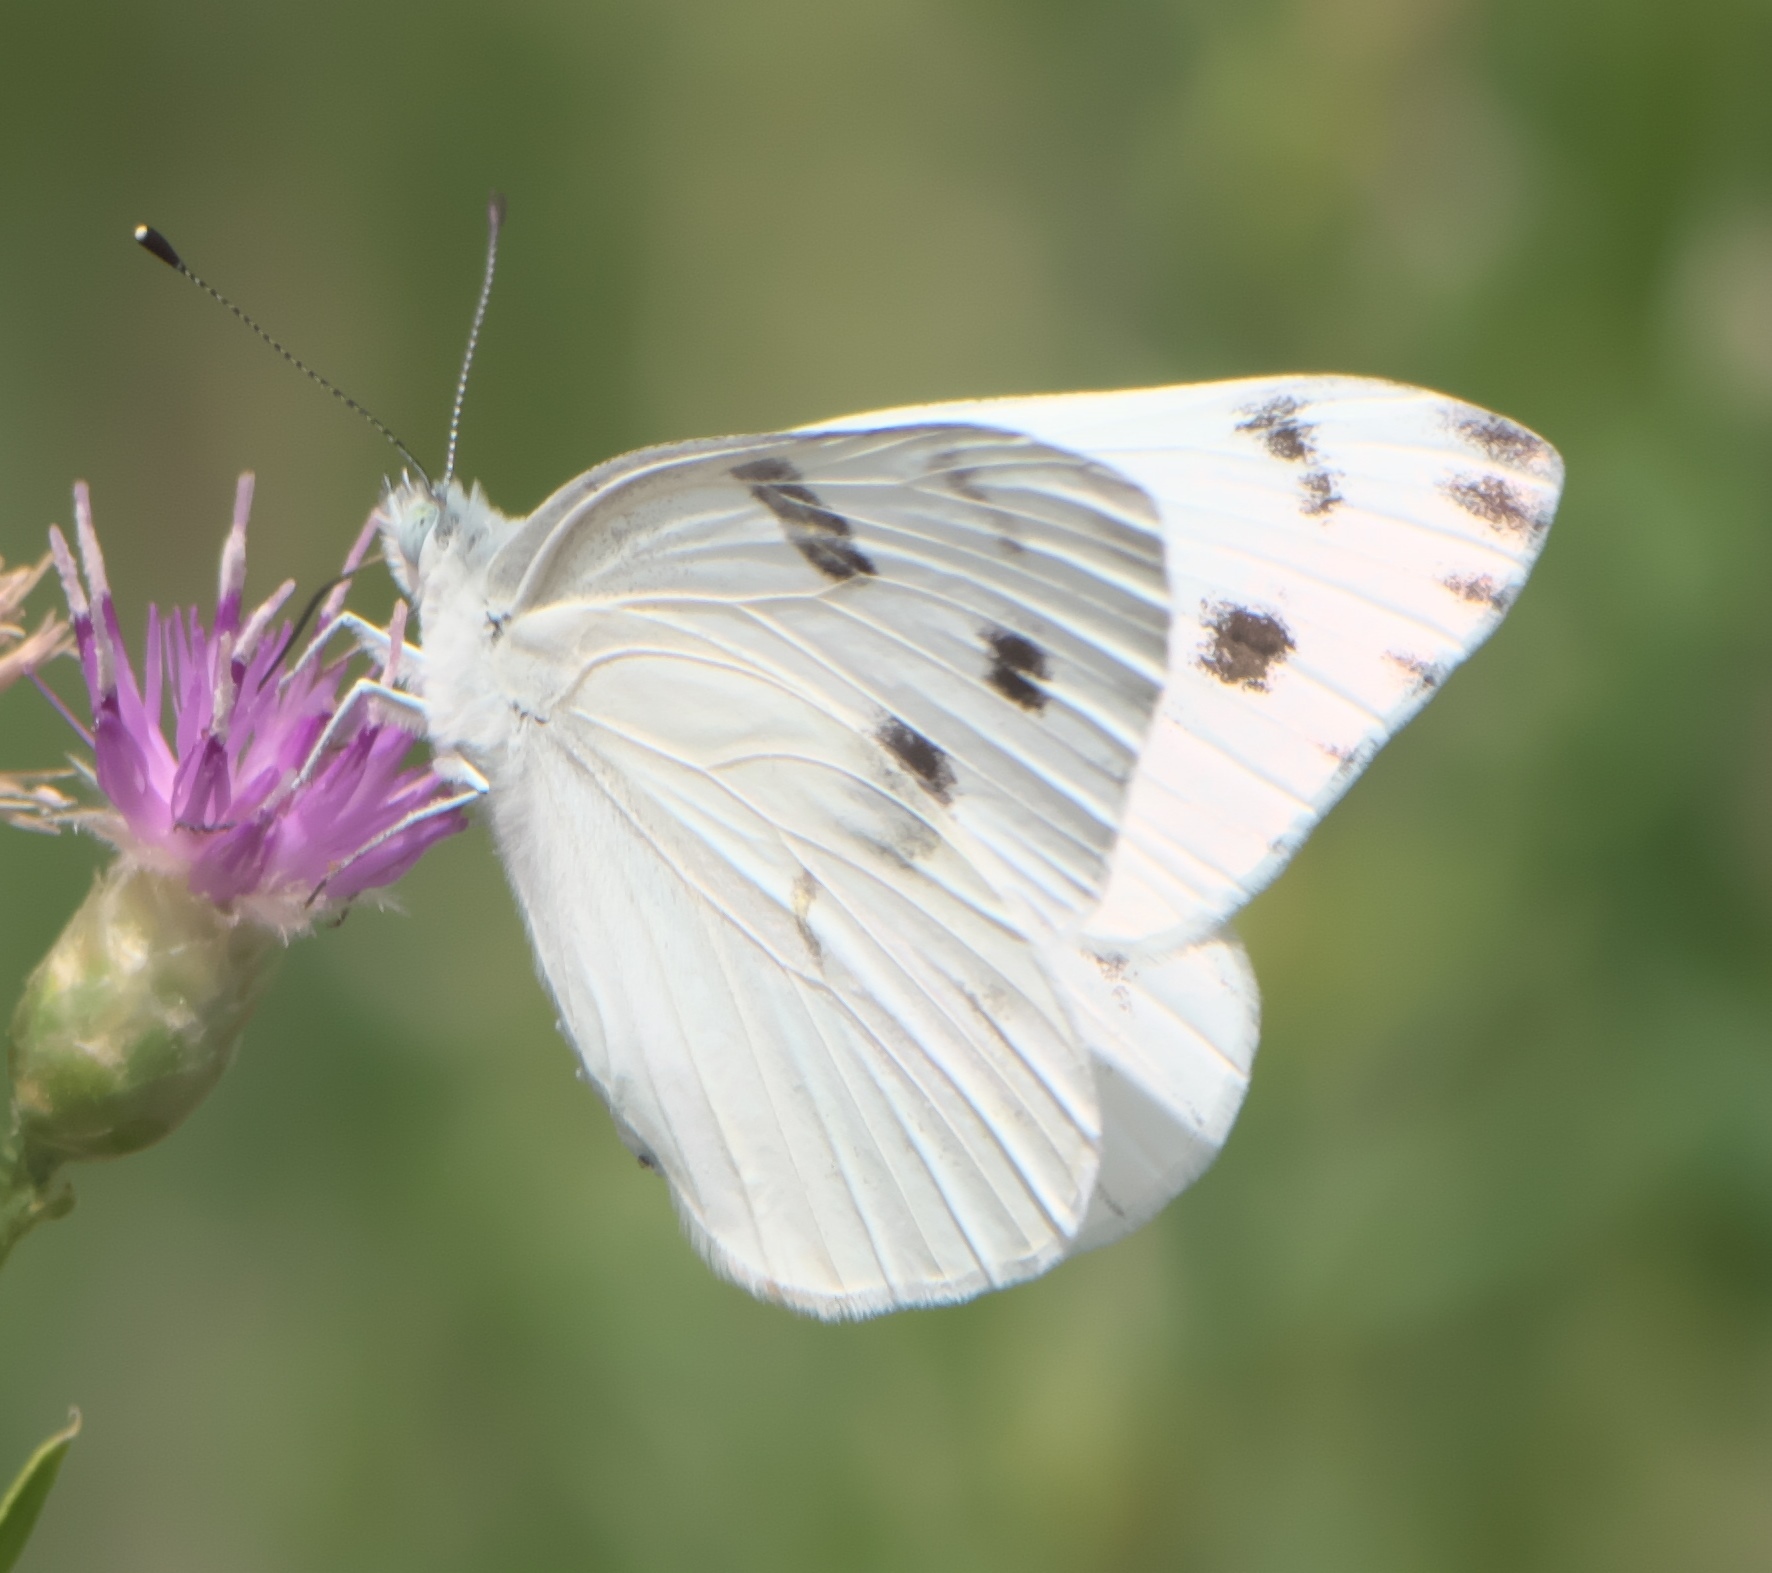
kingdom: Animalia
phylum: Arthropoda
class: Insecta
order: Lepidoptera
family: Pieridae
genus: Pontia
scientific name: Pontia protodice
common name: Checkered white
